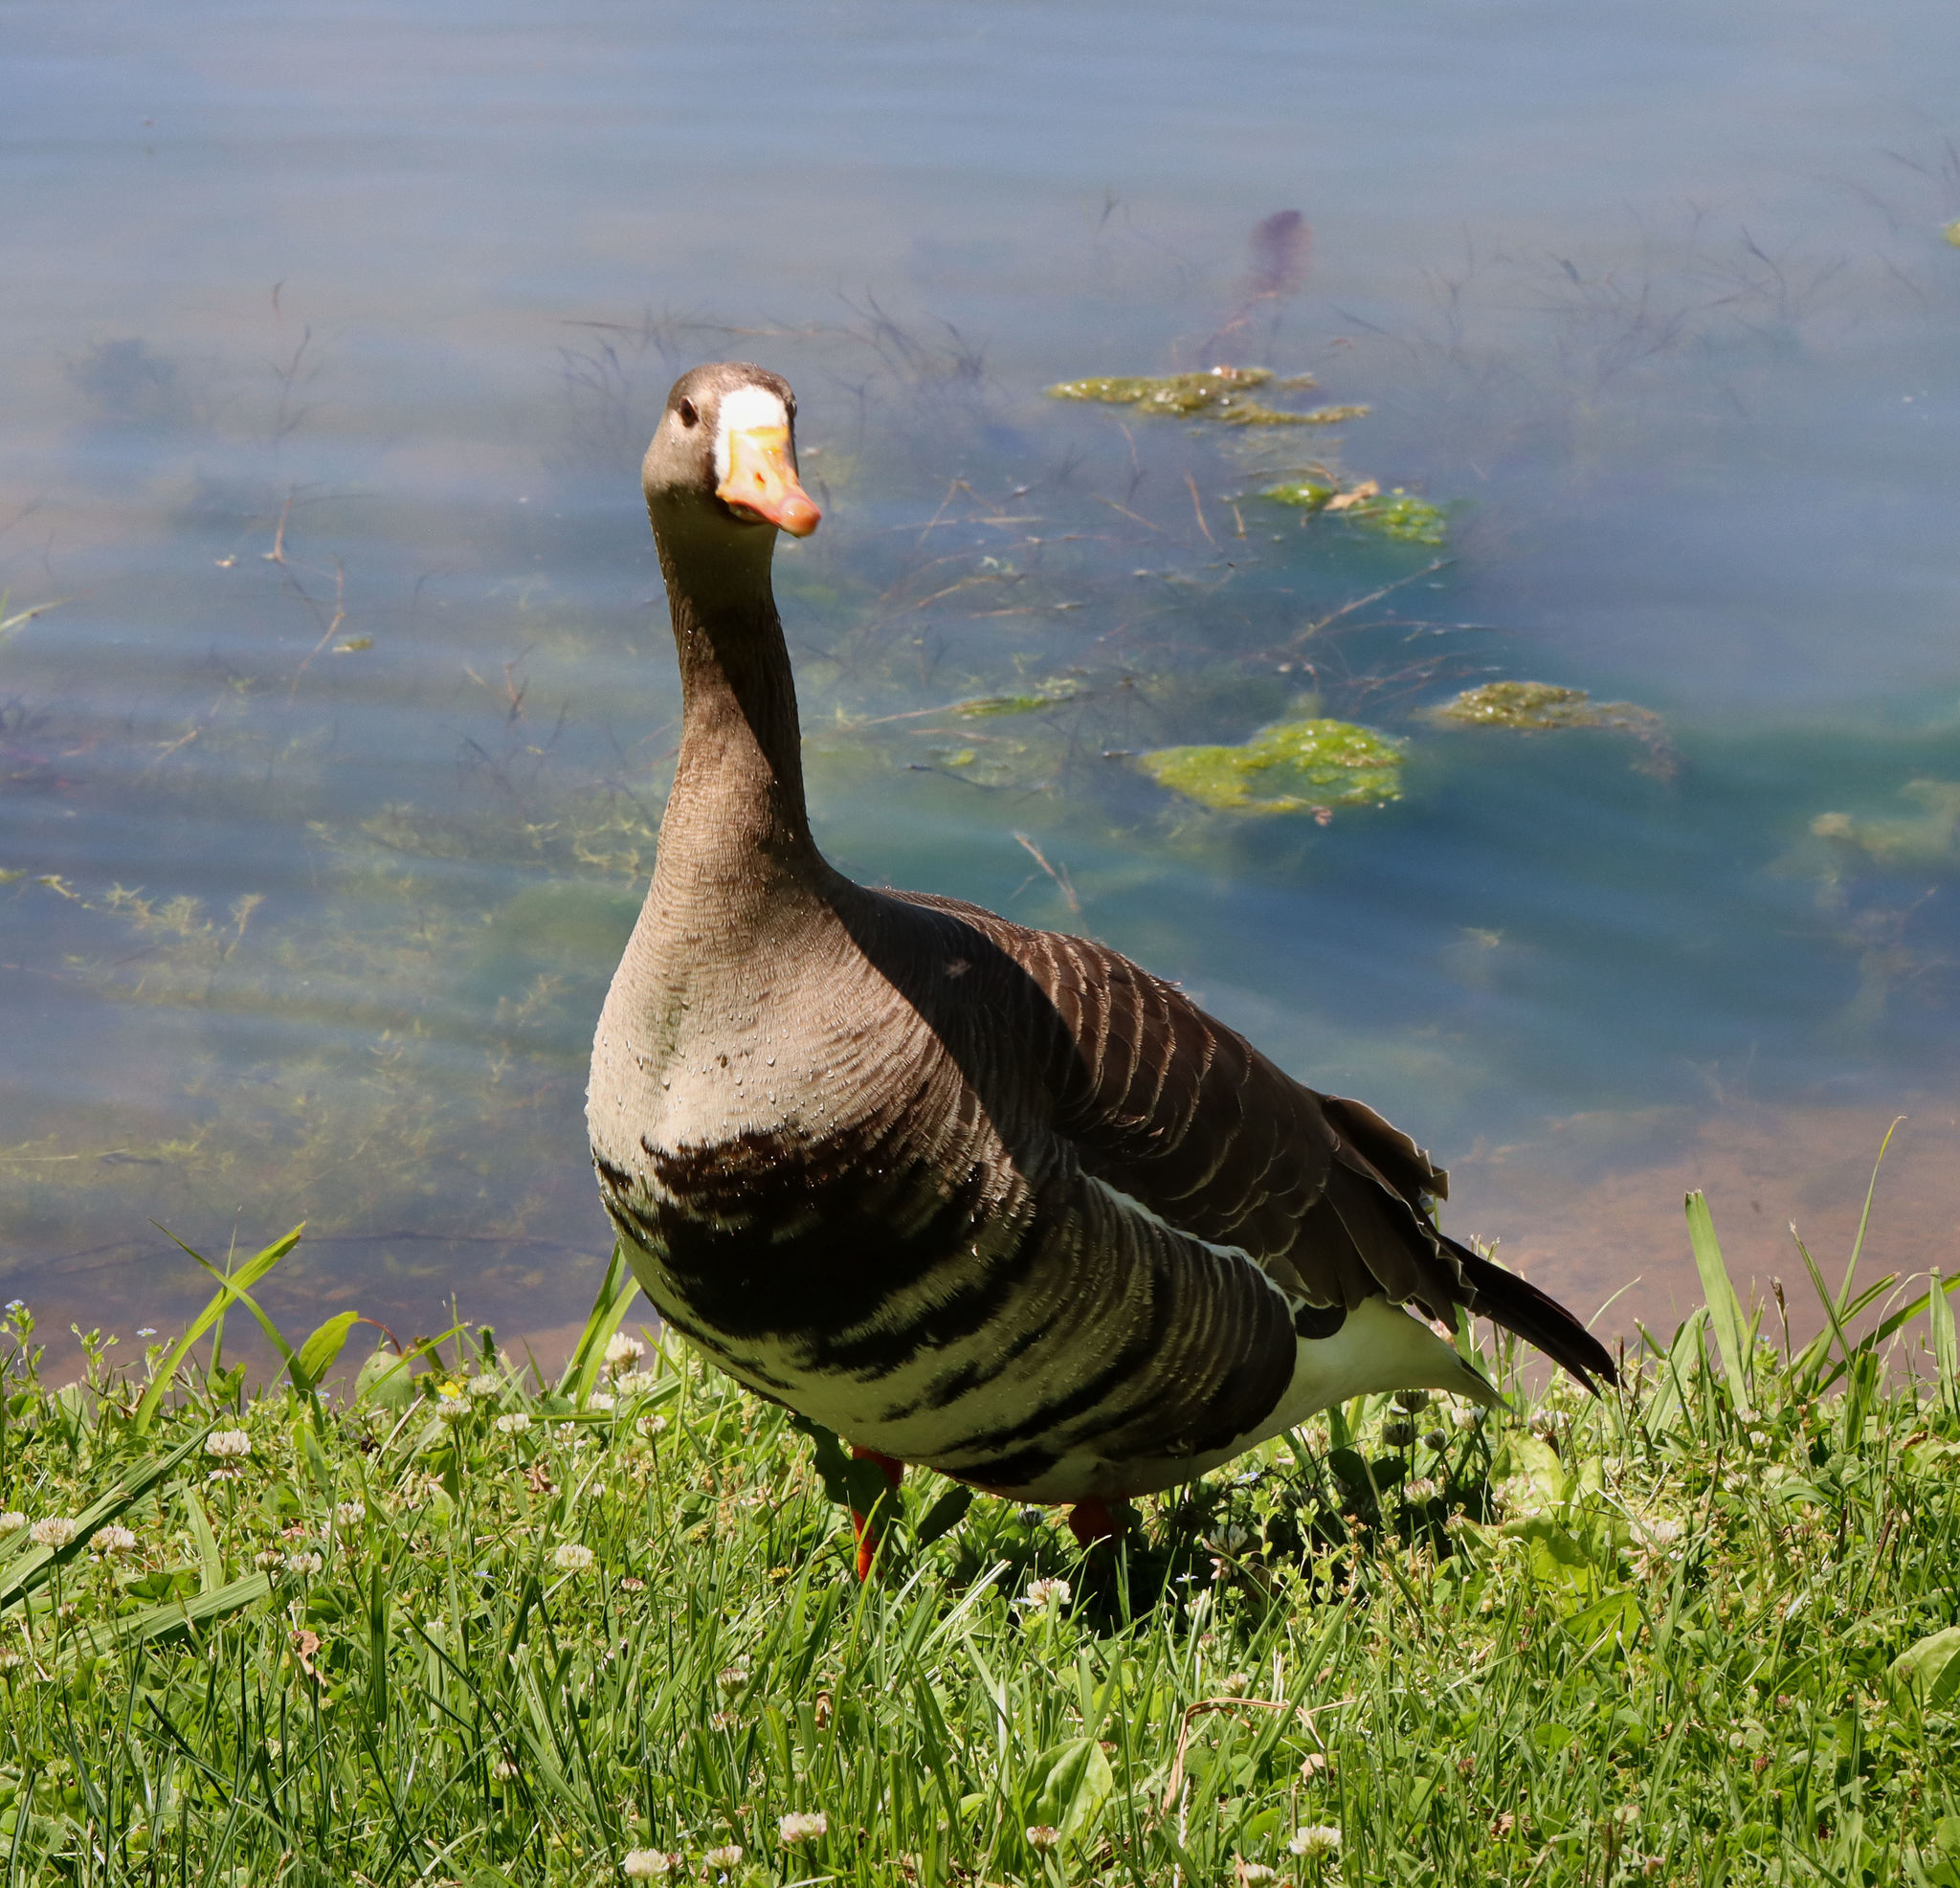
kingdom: Animalia
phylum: Chordata
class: Aves
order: Anseriformes
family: Anatidae
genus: Anser
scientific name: Anser albifrons
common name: Greater white-fronted goose
